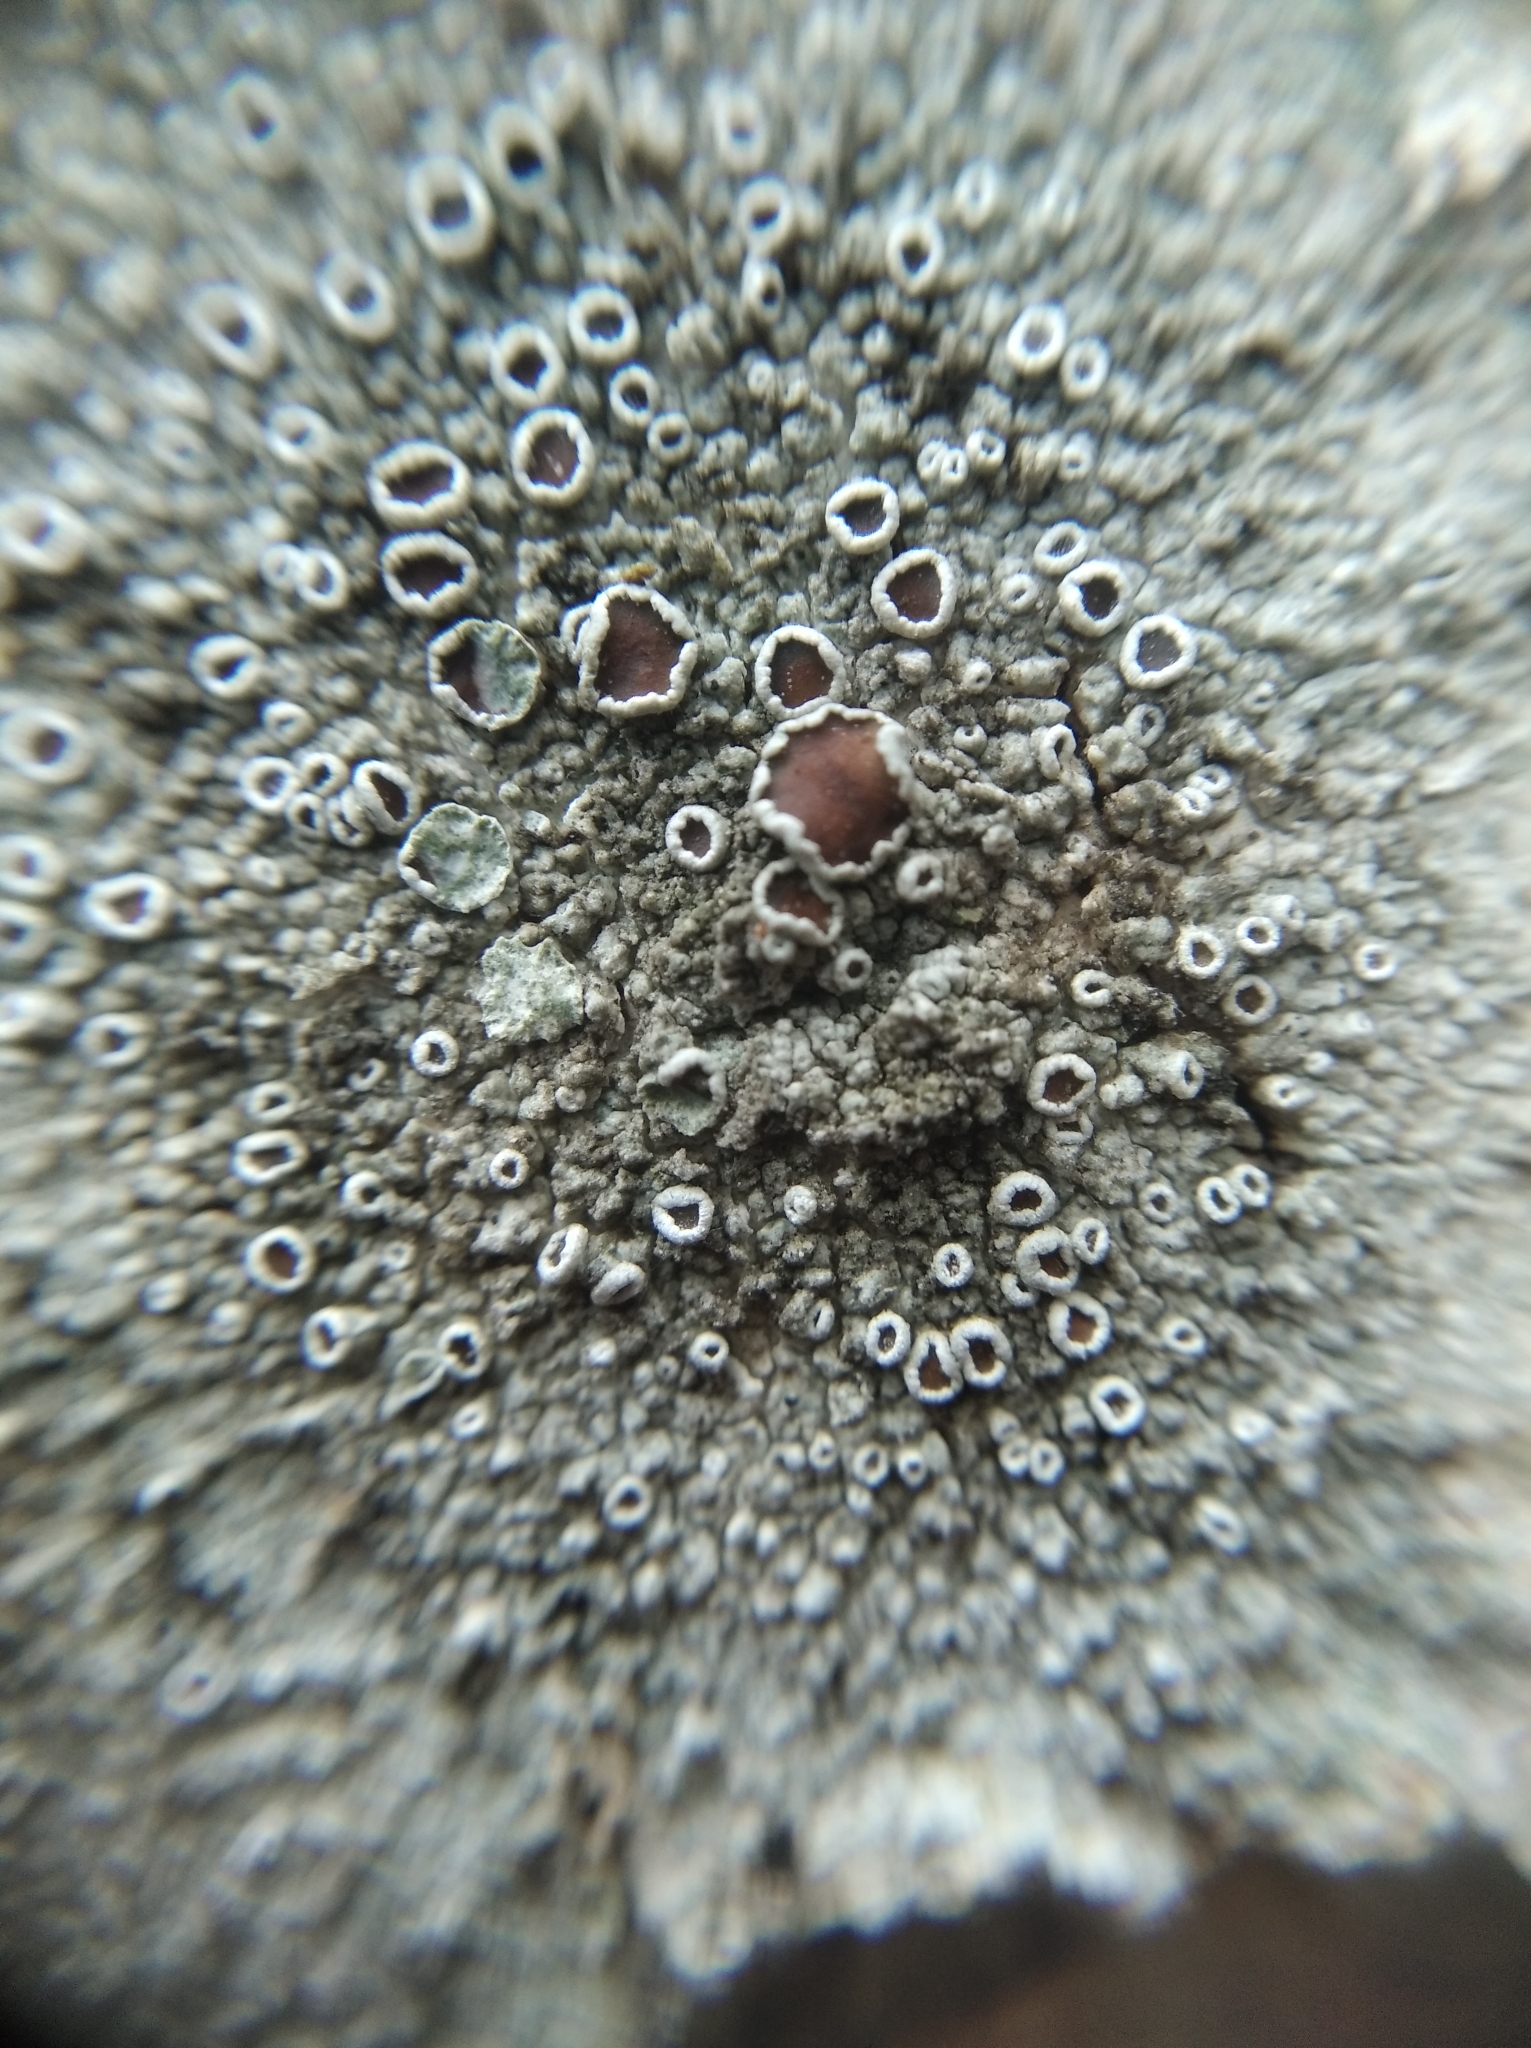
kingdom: Fungi
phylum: Ascomycota
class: Lecanoromycetes
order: Lecanorales
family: Lecanoraceae
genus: Lecanora
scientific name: Lecanora albella
